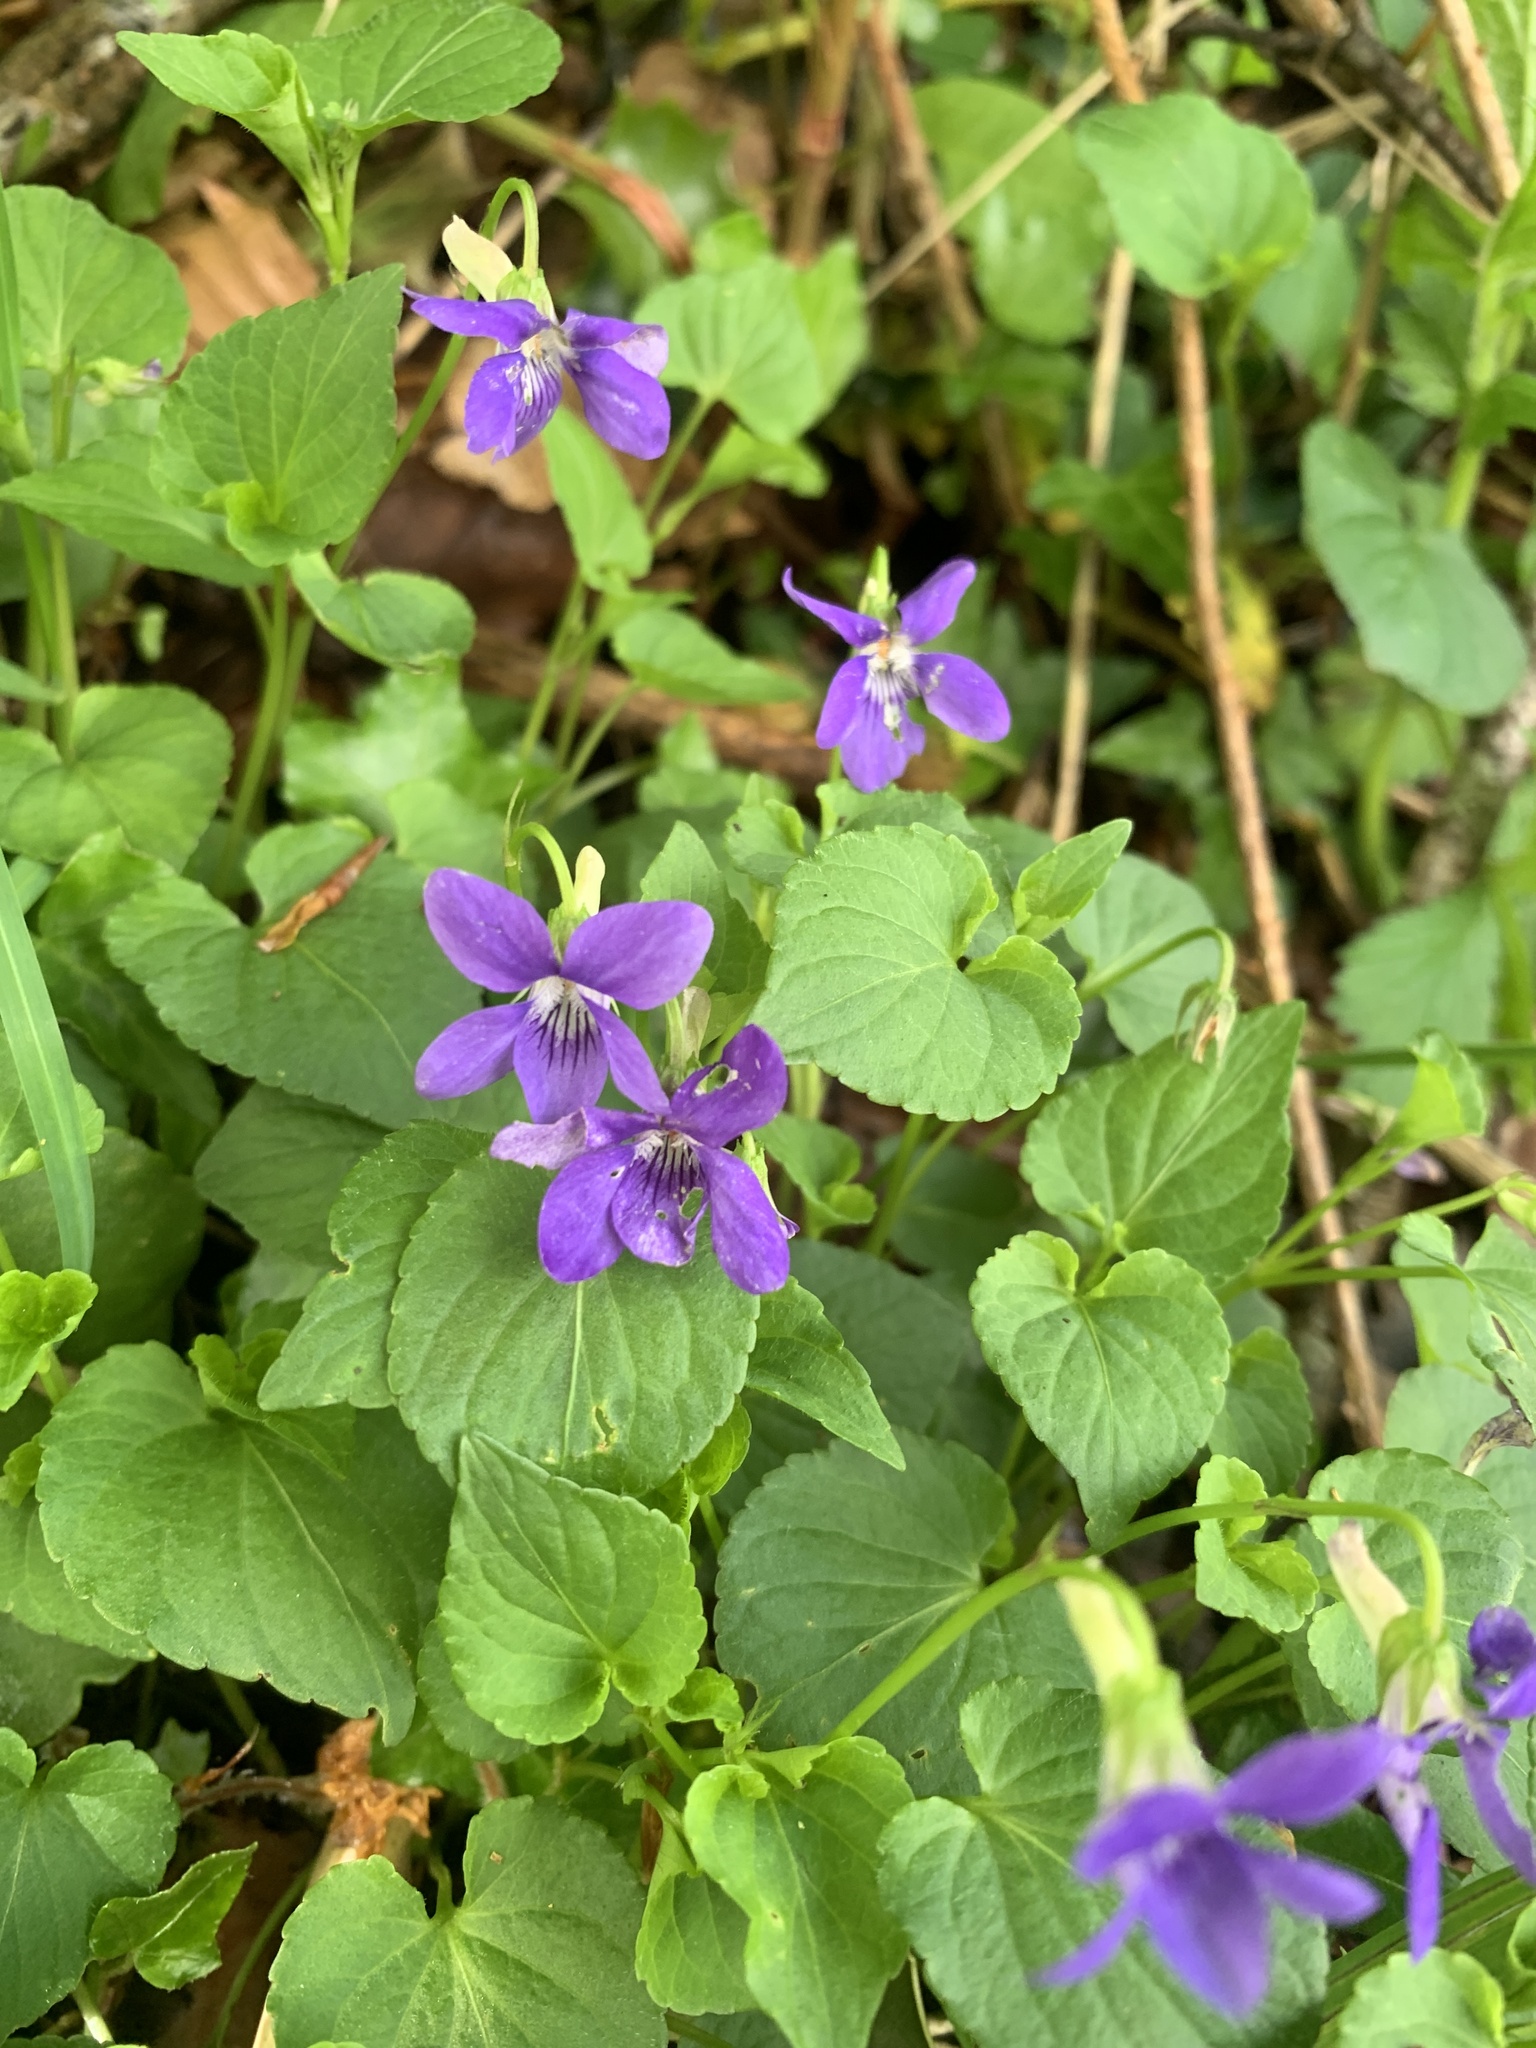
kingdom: Plantae
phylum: Tracheophyta
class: Magnoliopsida
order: Malpighiales
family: Violaceae
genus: Viola
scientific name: Viola riviniana
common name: Common dog-violet
